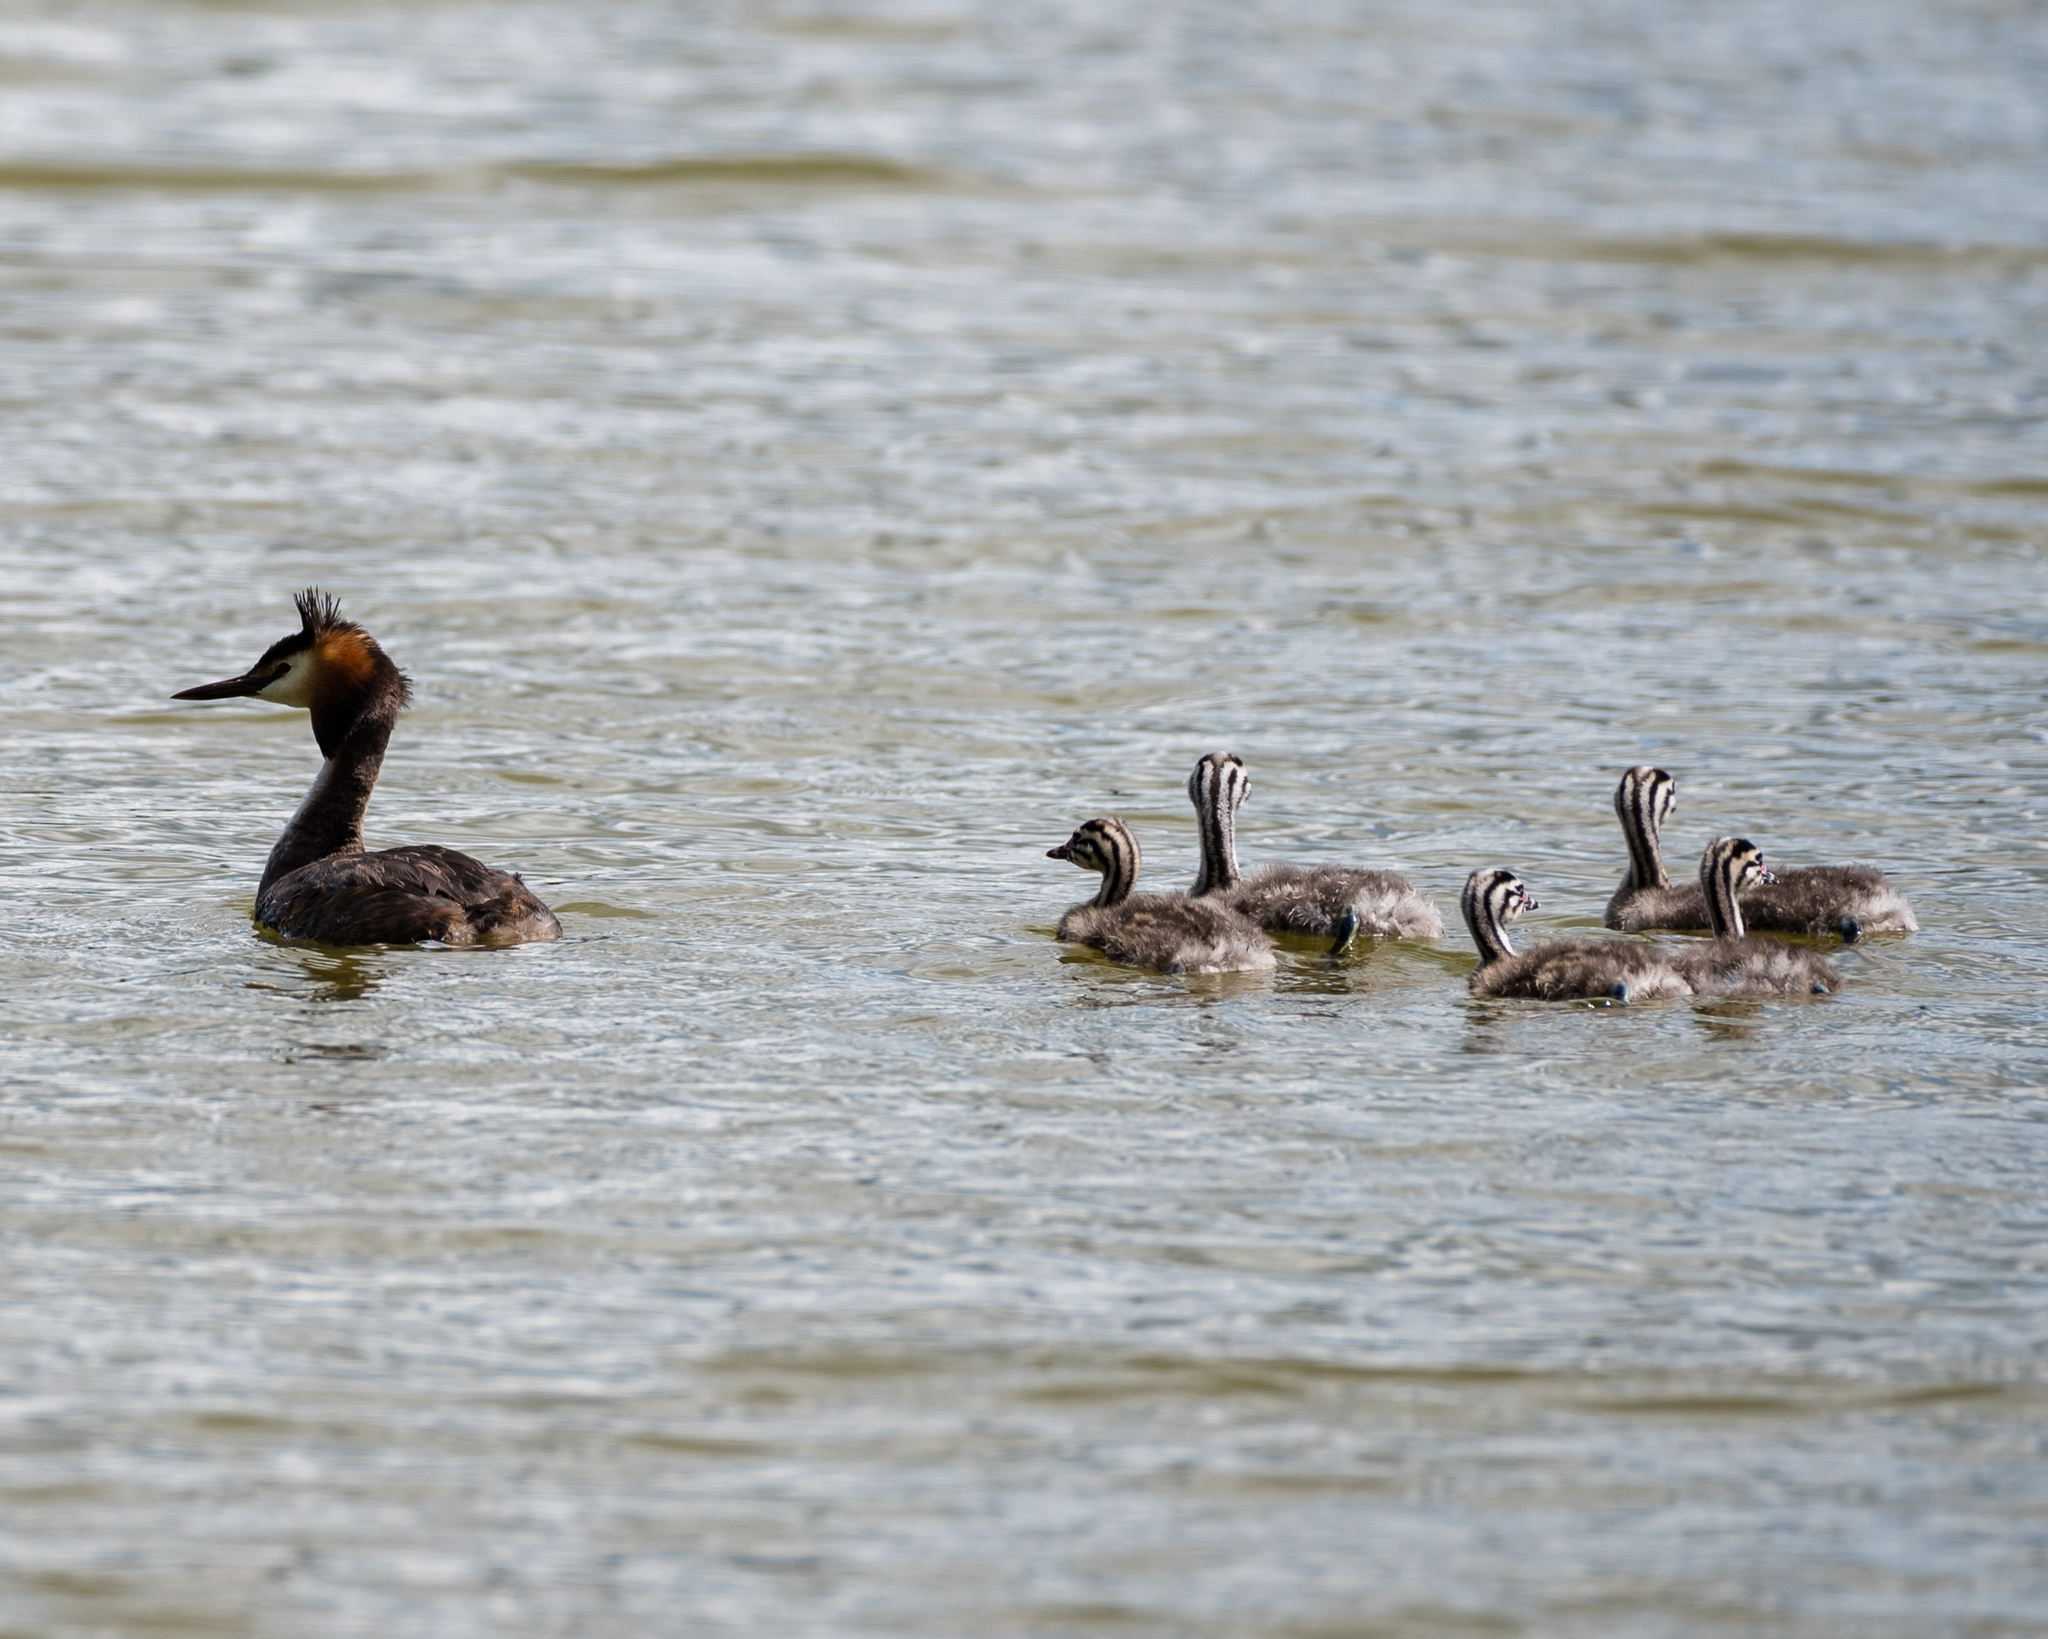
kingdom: Animalia
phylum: Chordata
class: Aves
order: Podicipediformes
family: Podicipedidae
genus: Podiceps
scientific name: Podiceps cristatus
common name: Great crested grebe
